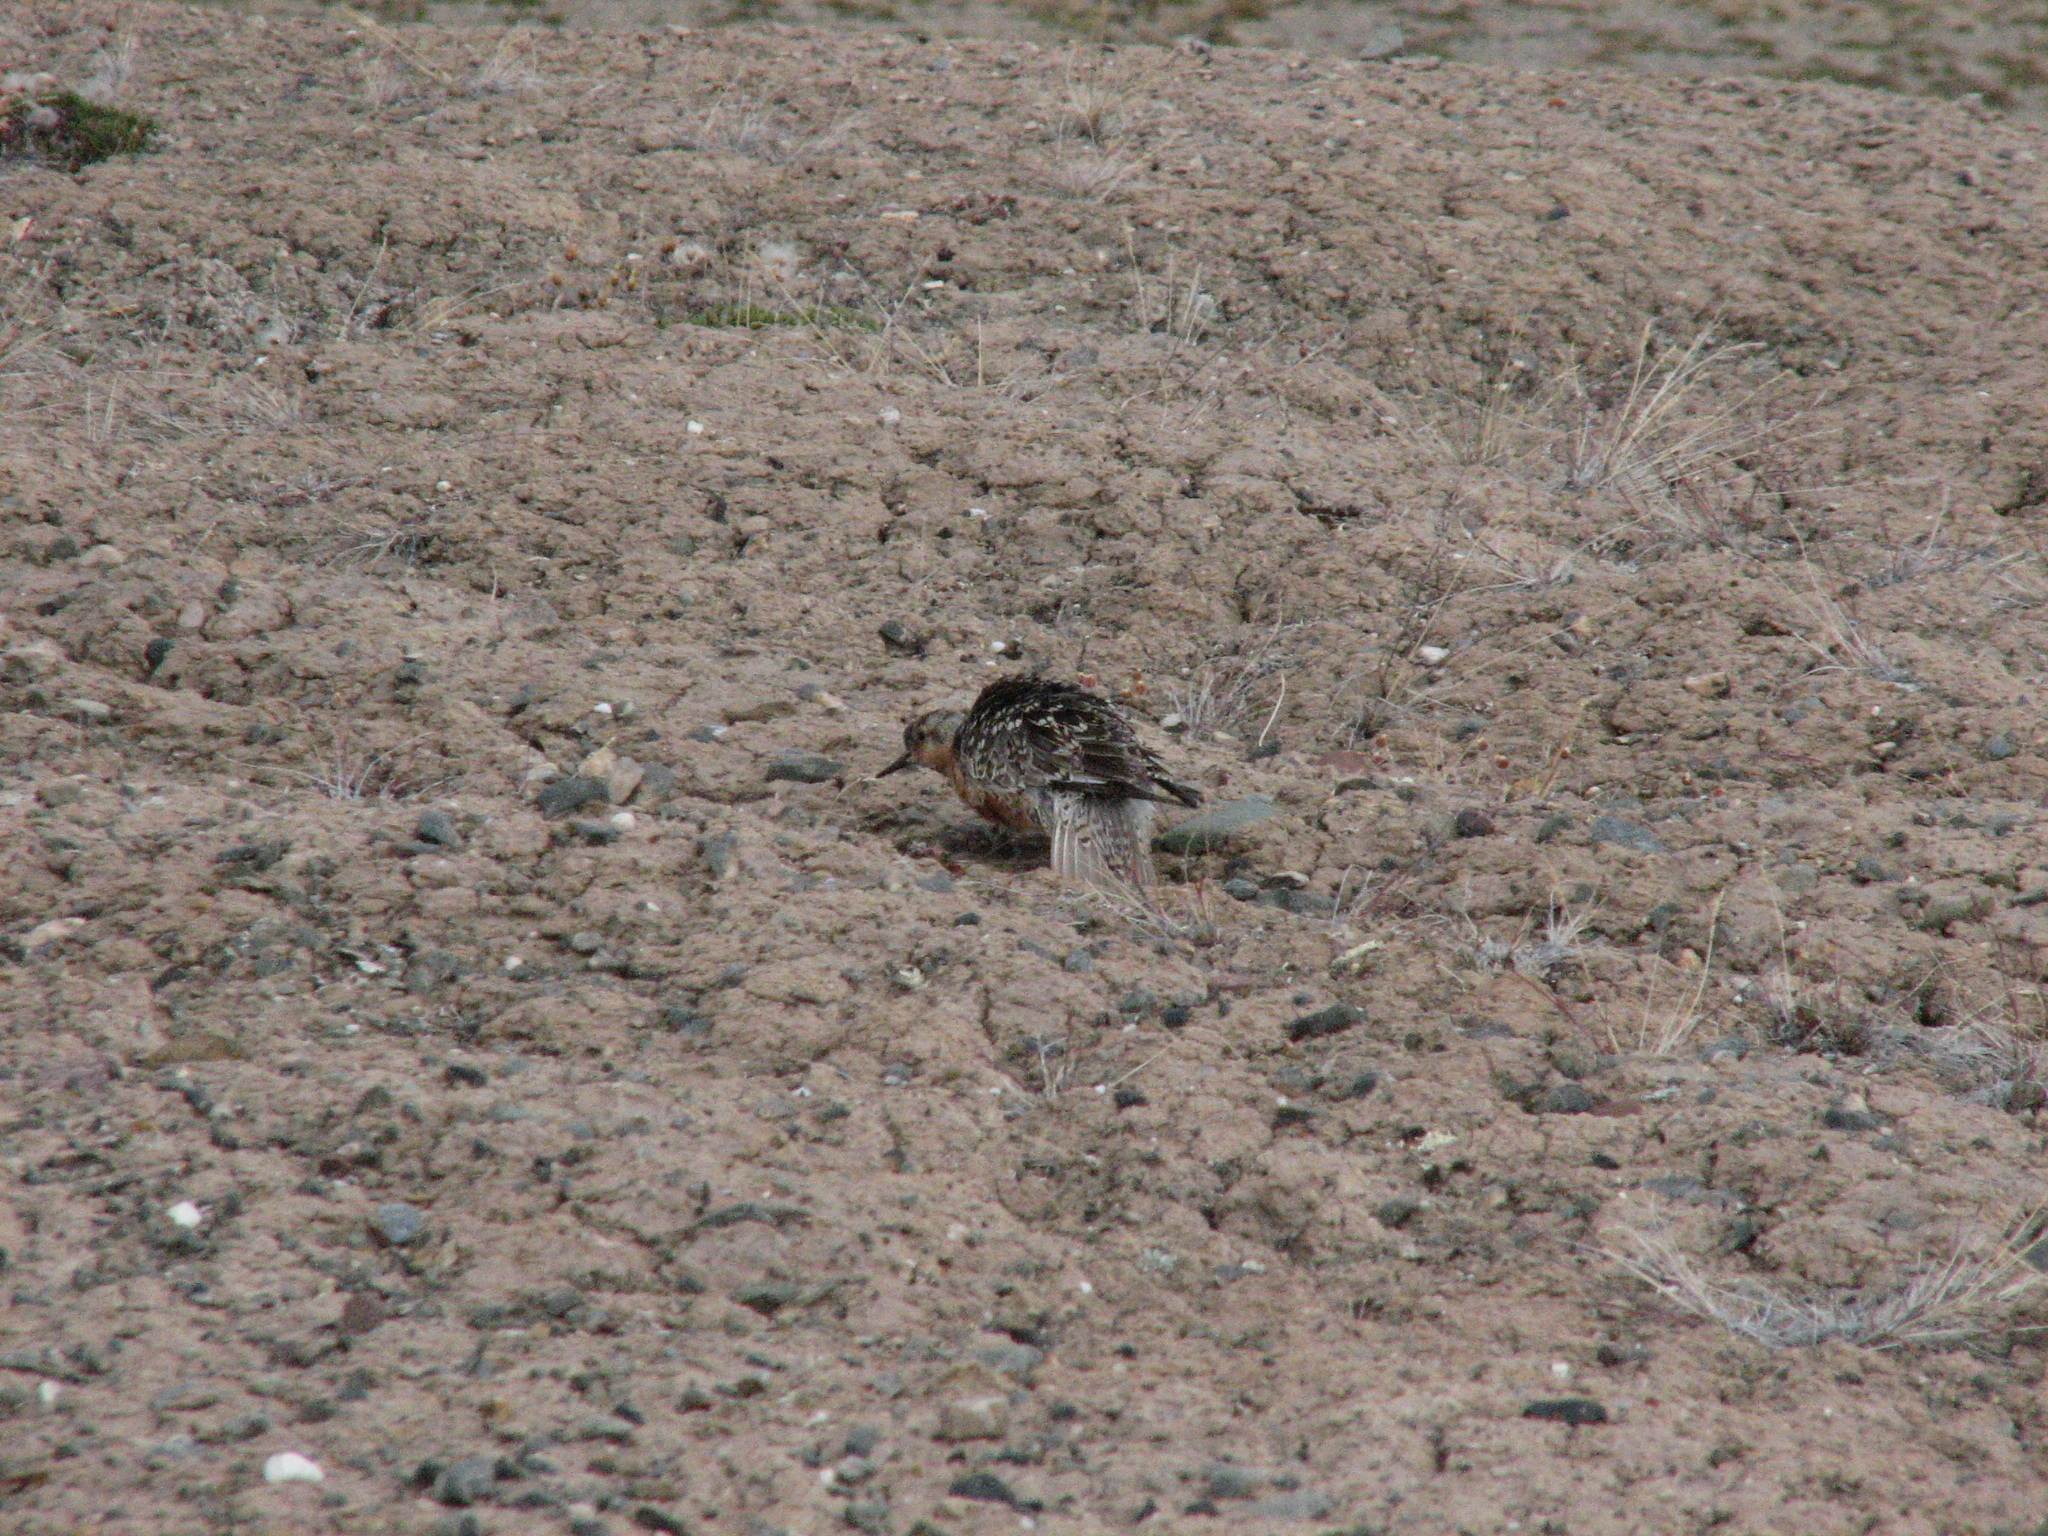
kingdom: Animalia
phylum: Chordata
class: Aves
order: Charadriiformes
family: Scolopacidae
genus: Calidris
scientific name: Calidris canutus
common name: Red knot
